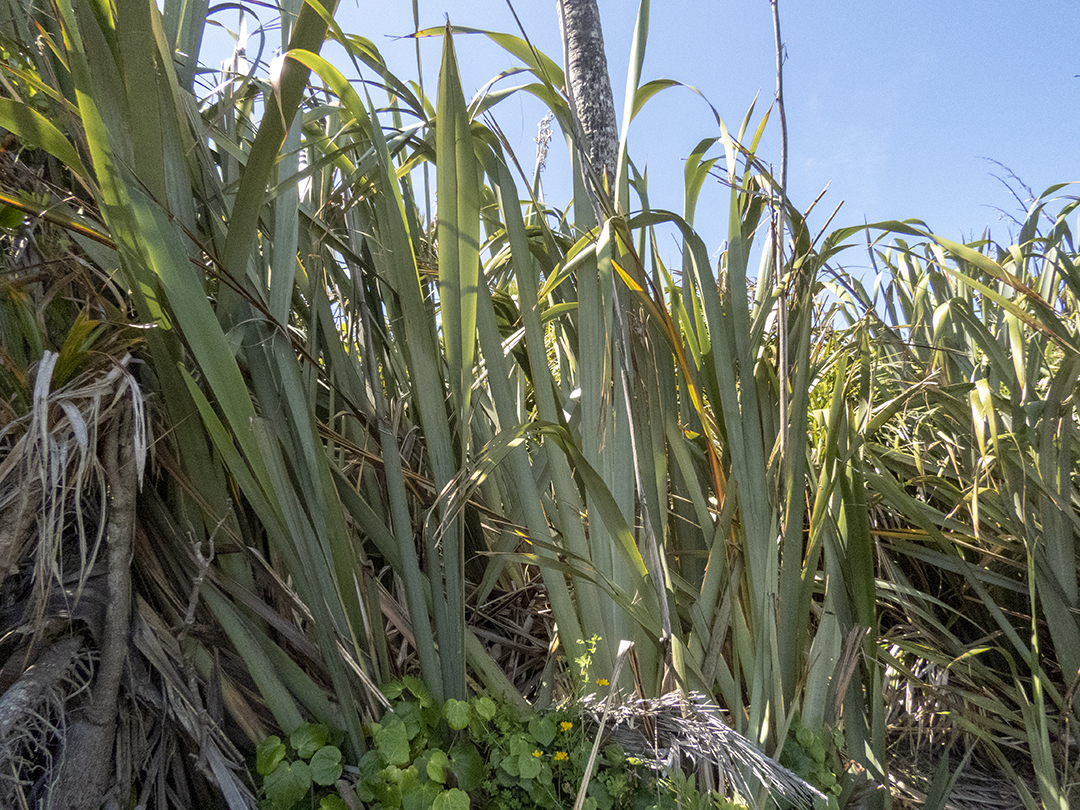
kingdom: Plantae
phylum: Tracheophyta
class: Liliopsida
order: Asparagales
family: Asphodelaceae
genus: Phormium
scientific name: Phormium tenax
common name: New zealand flax
